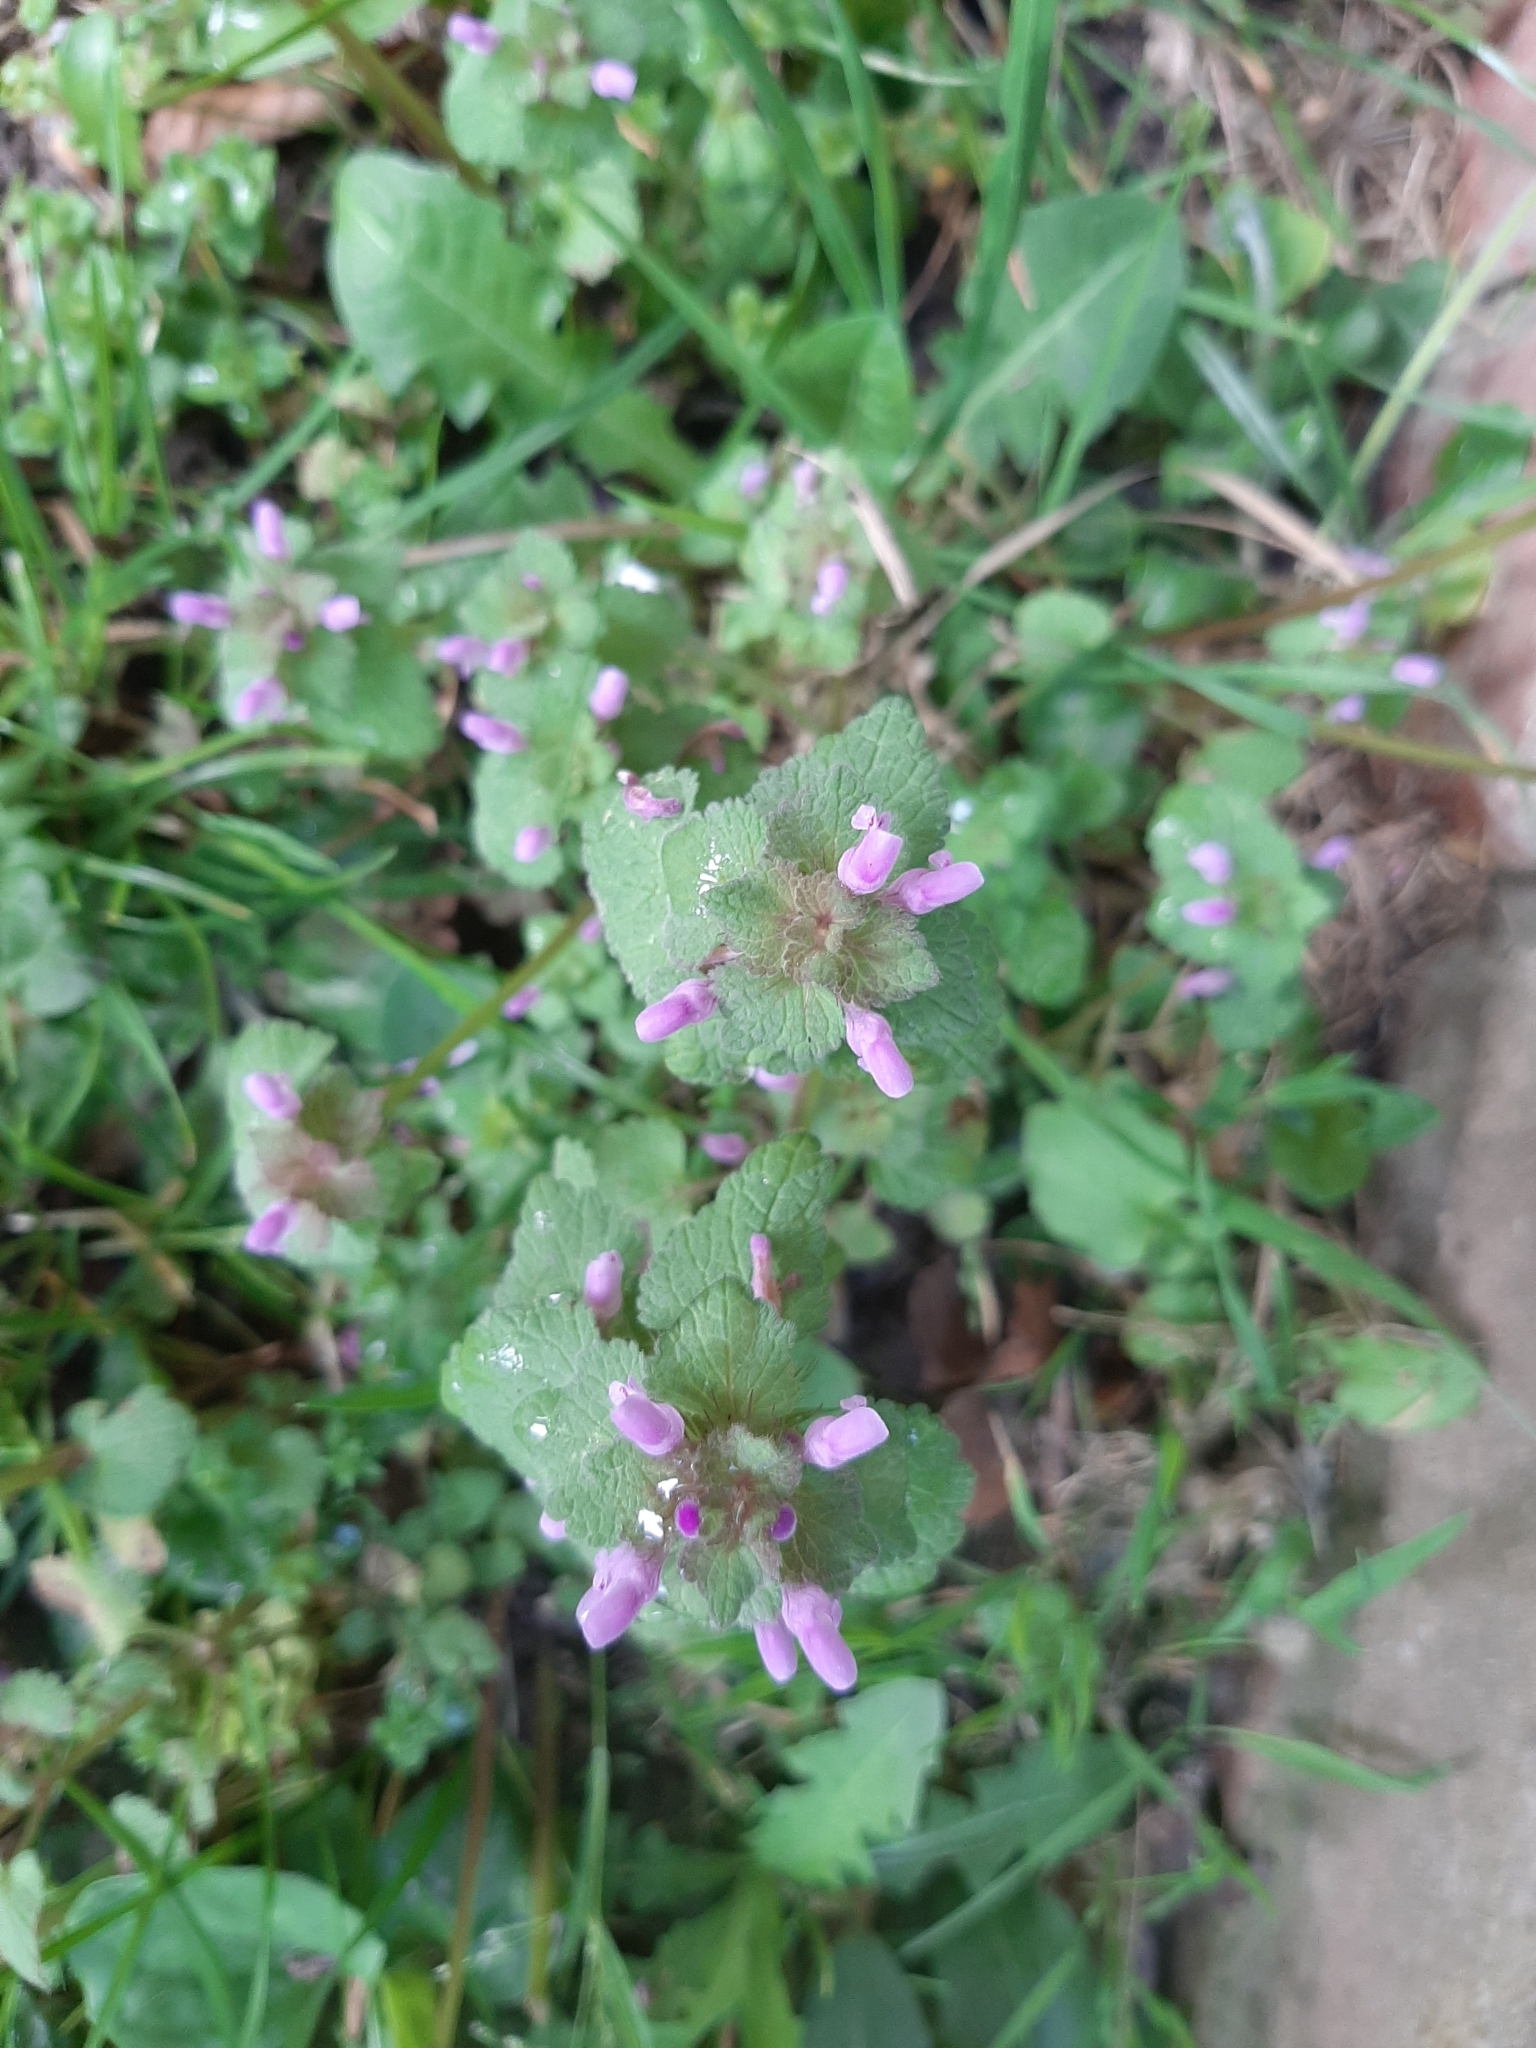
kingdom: Plantae
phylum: Tracheophyta
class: Magnoliopsida
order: Lamiales
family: Lamiaceae
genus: Lamium
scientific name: Lamium purpureum
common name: Red dead-nettle
